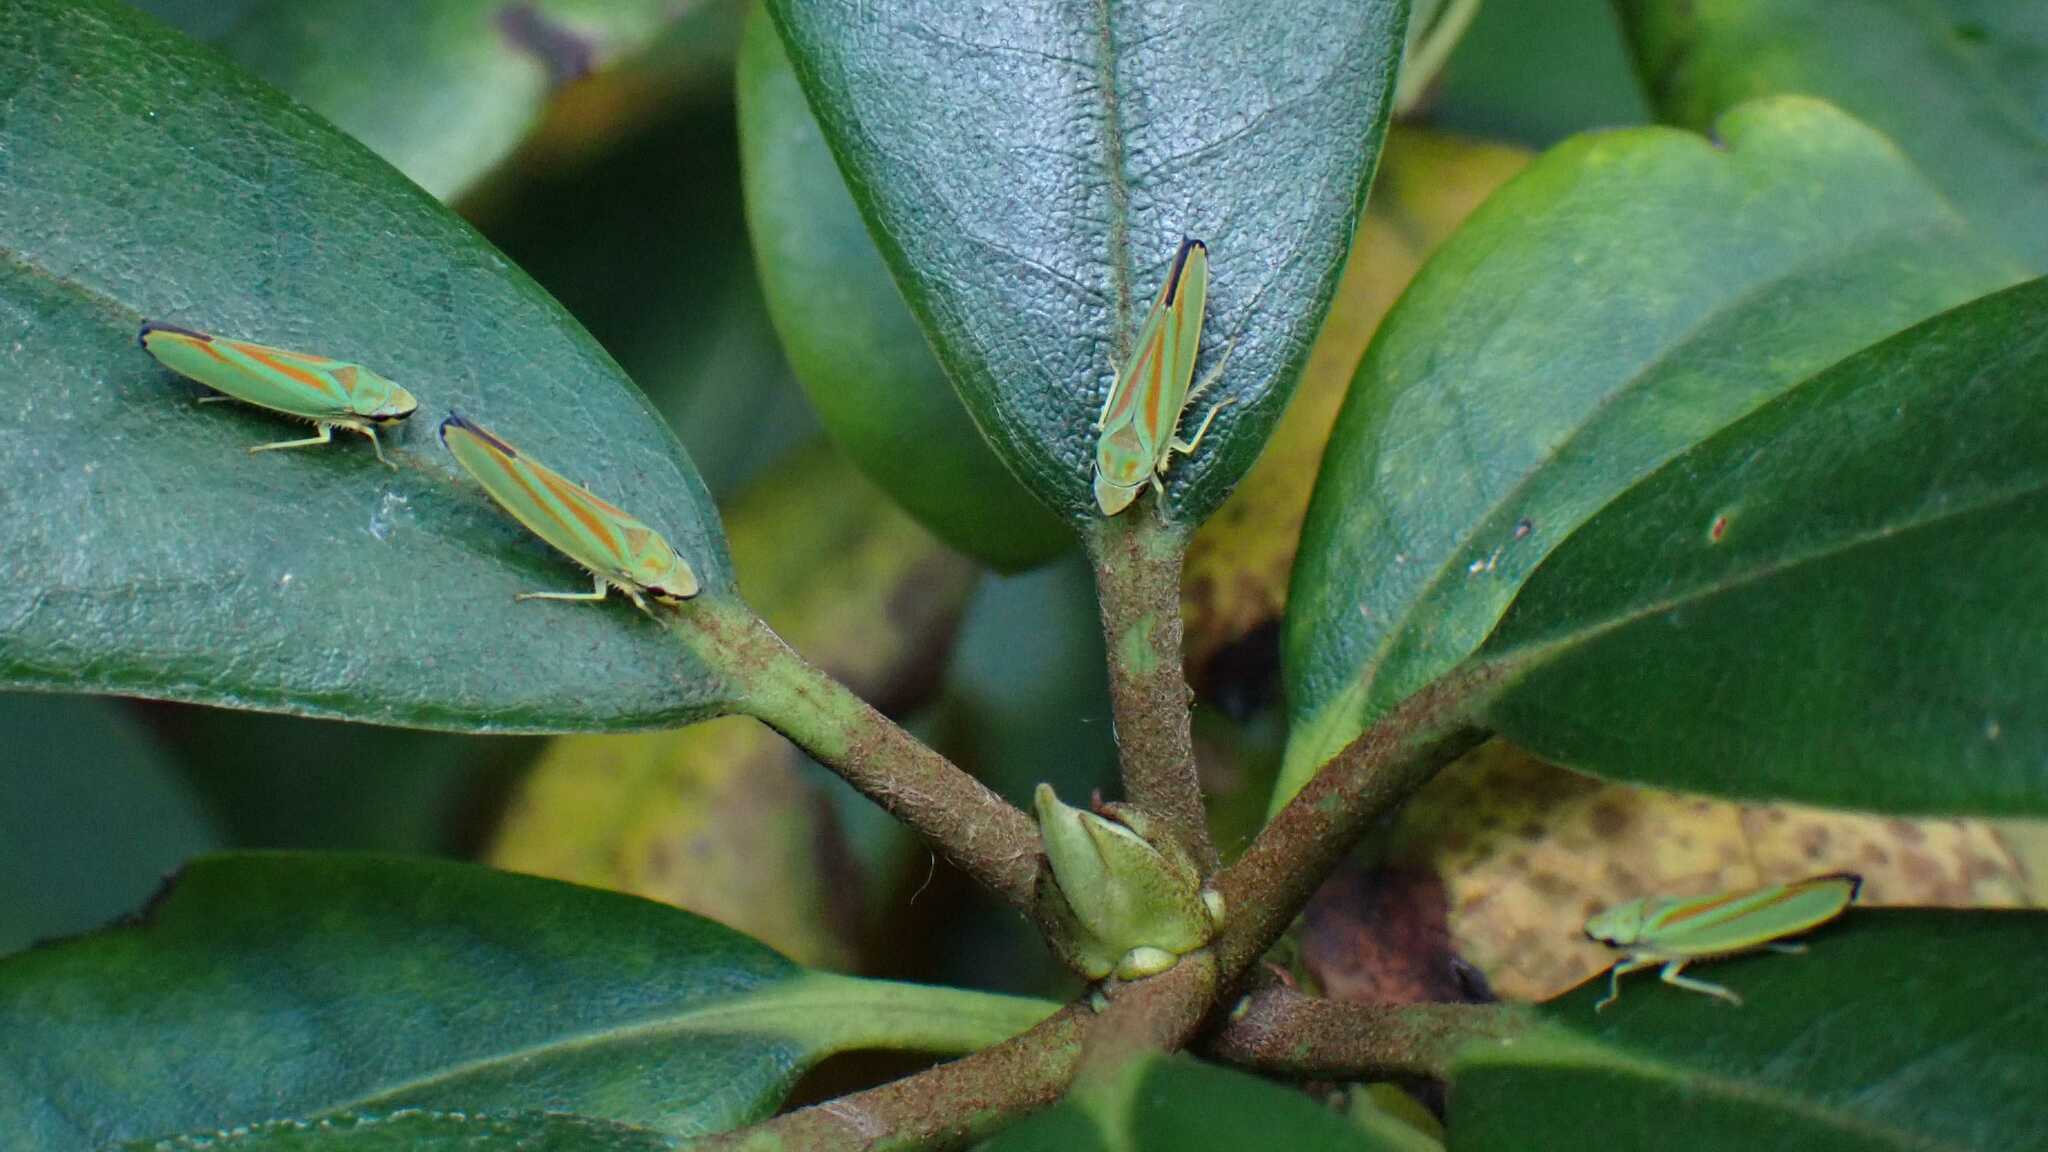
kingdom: Animalia
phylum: Arthropoda
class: Insecta
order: Hemiptera
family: Cicadellidae
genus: Graphocephala
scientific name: Graphocephala fennahi
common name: Rhododendron leafhopper
